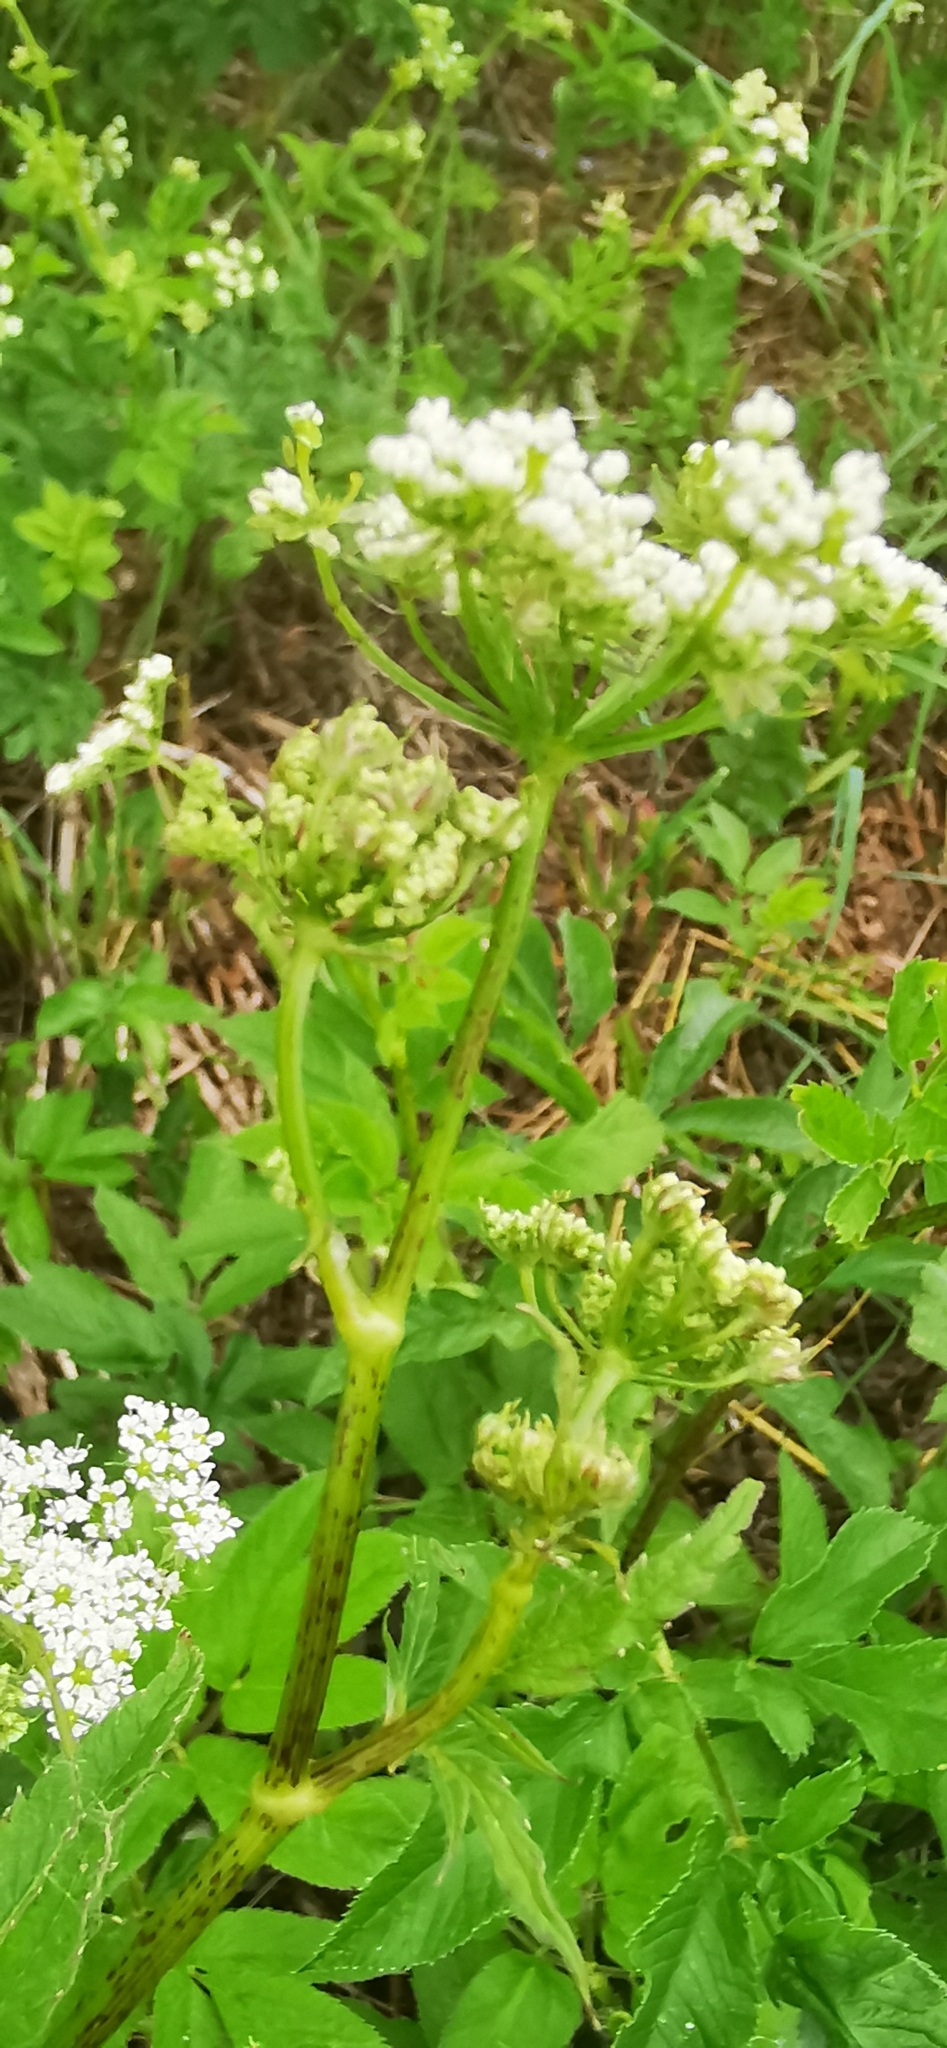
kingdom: Plantae
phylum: Tracheophyta
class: Magnoliopsida
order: Apiales
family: Apiaceae
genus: Chaerophyllum
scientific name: Chaerophyllum aromaticum
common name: Broadleaf chervil
